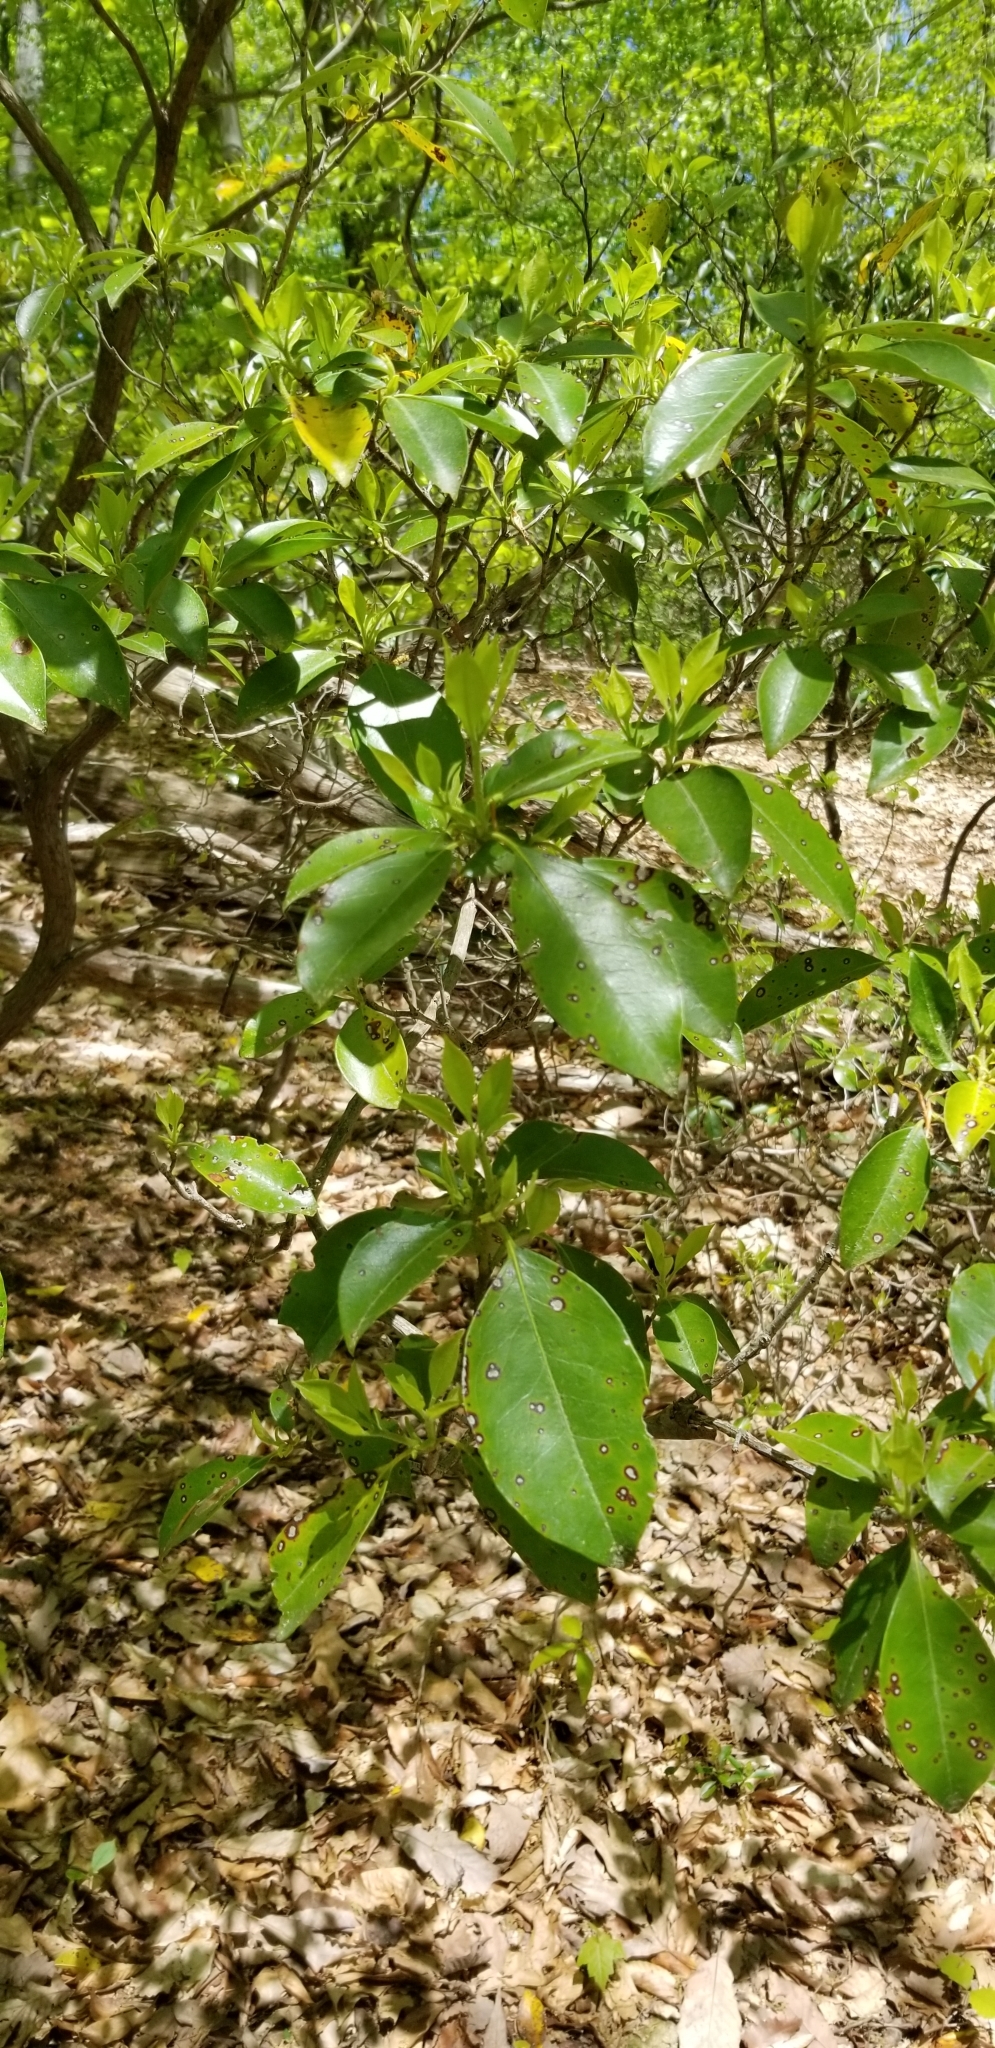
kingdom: Plantae
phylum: Tracheophyta
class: Magnoliopsida
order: Ericales
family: Ericaceae
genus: Kalmia
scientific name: Kalmia latifolia
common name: Mountain-laurel
